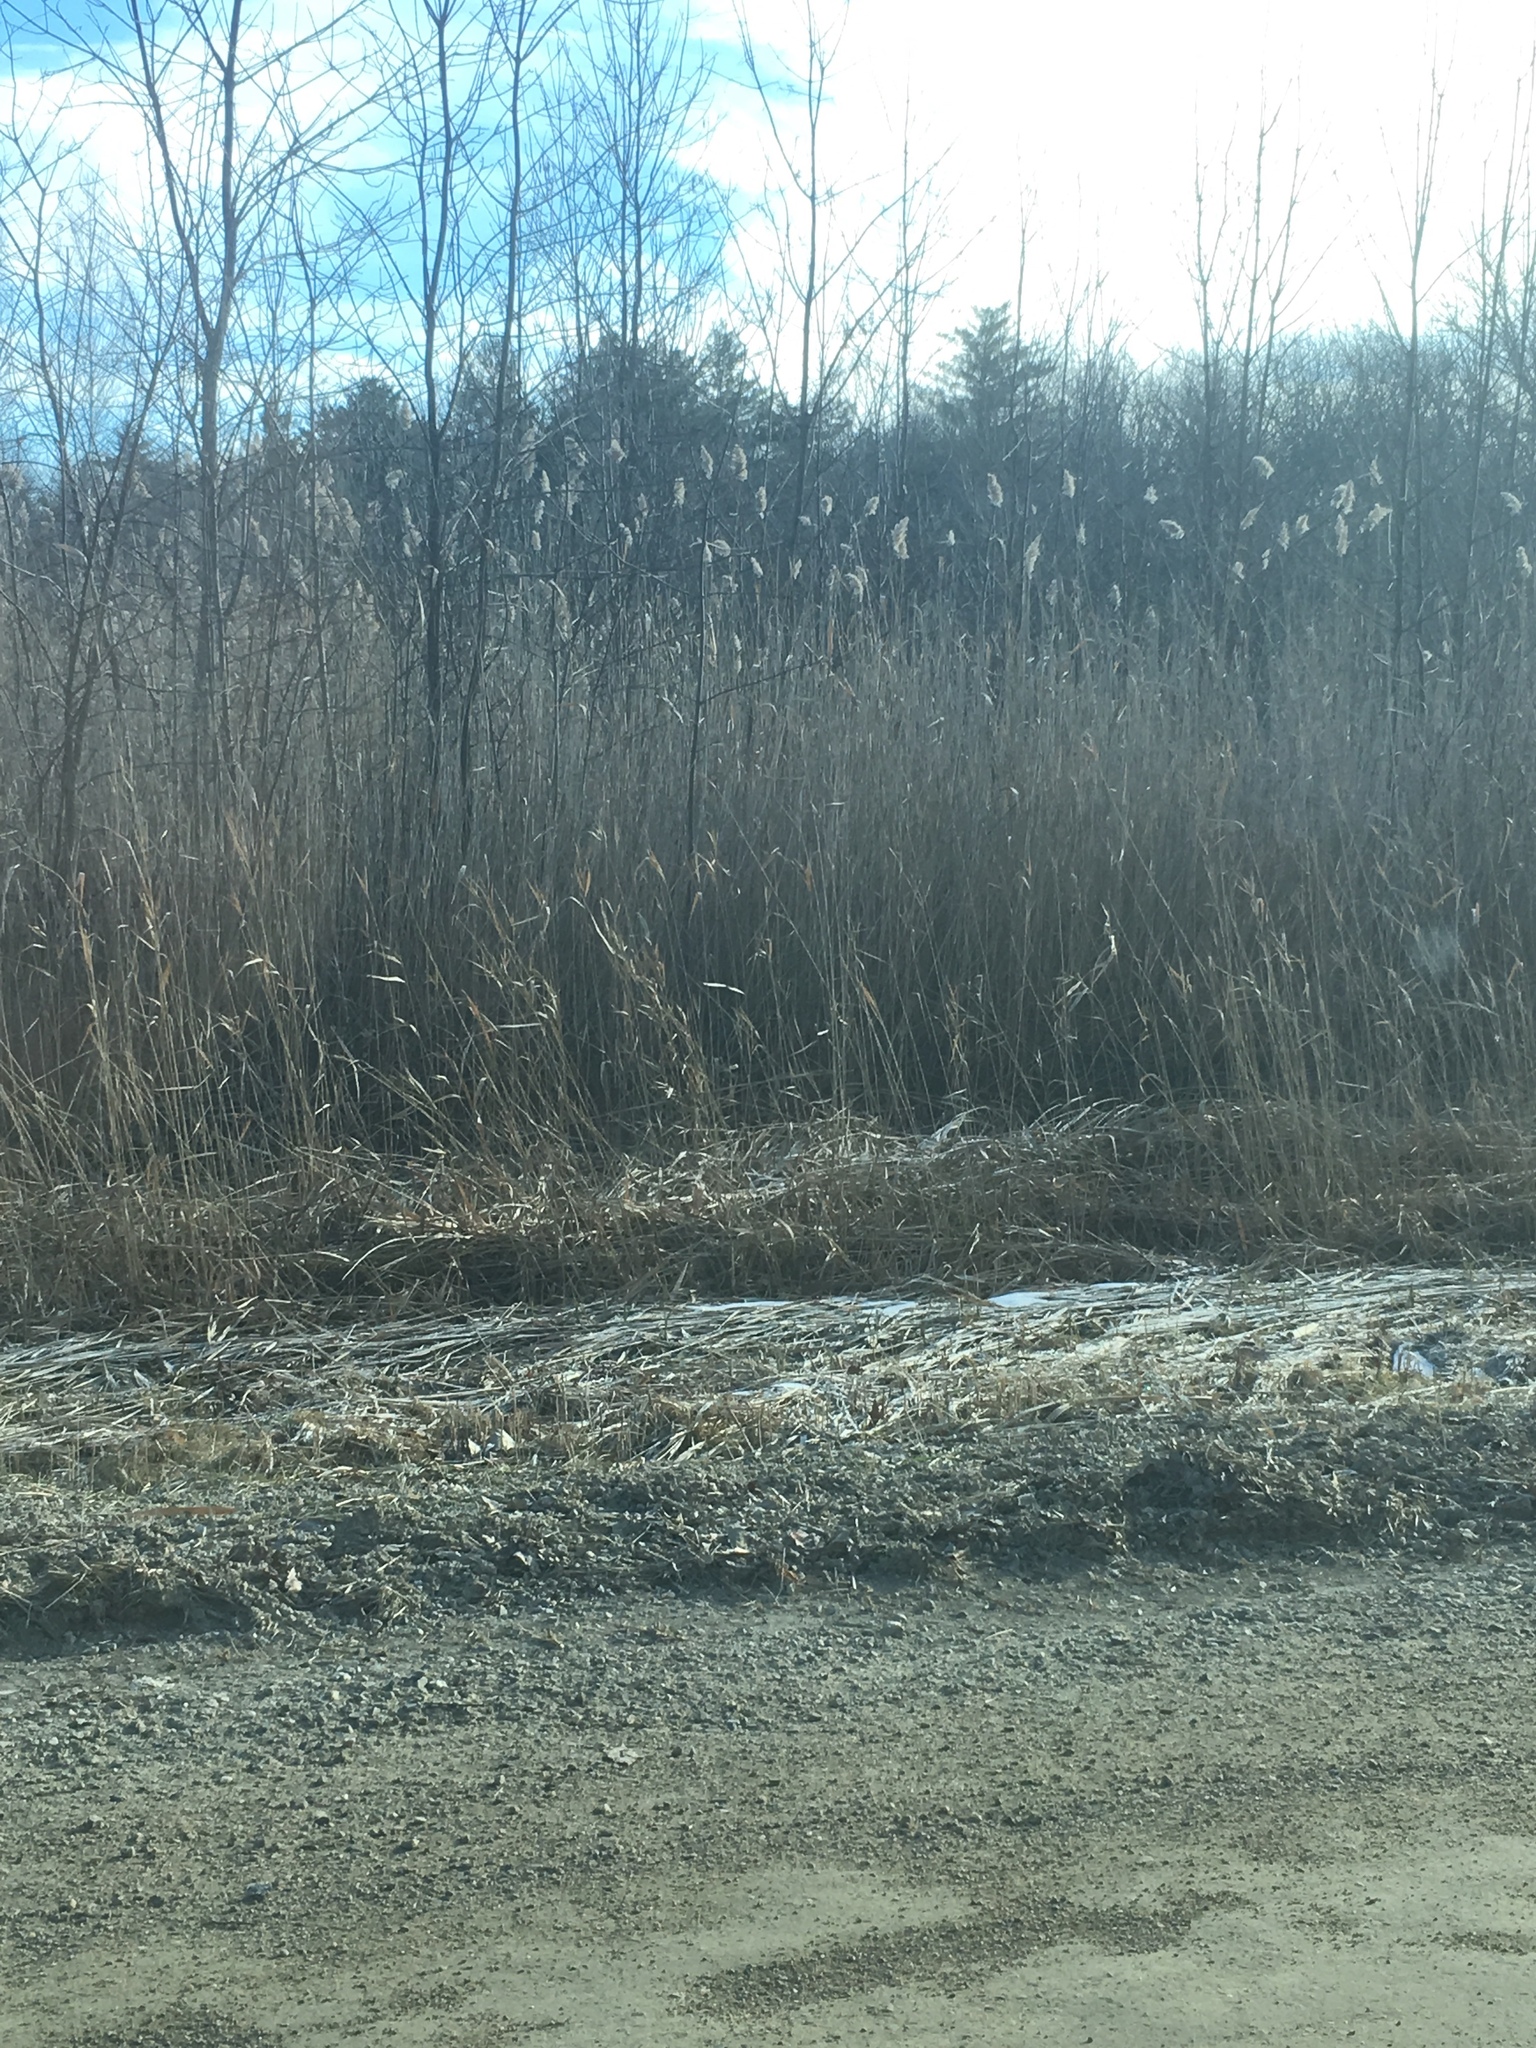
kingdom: Plantae
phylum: Tracheophyta
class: Liliopsida
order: Poales
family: Poaceae
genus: Phragmites
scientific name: Phragmites australis
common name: Common reed
